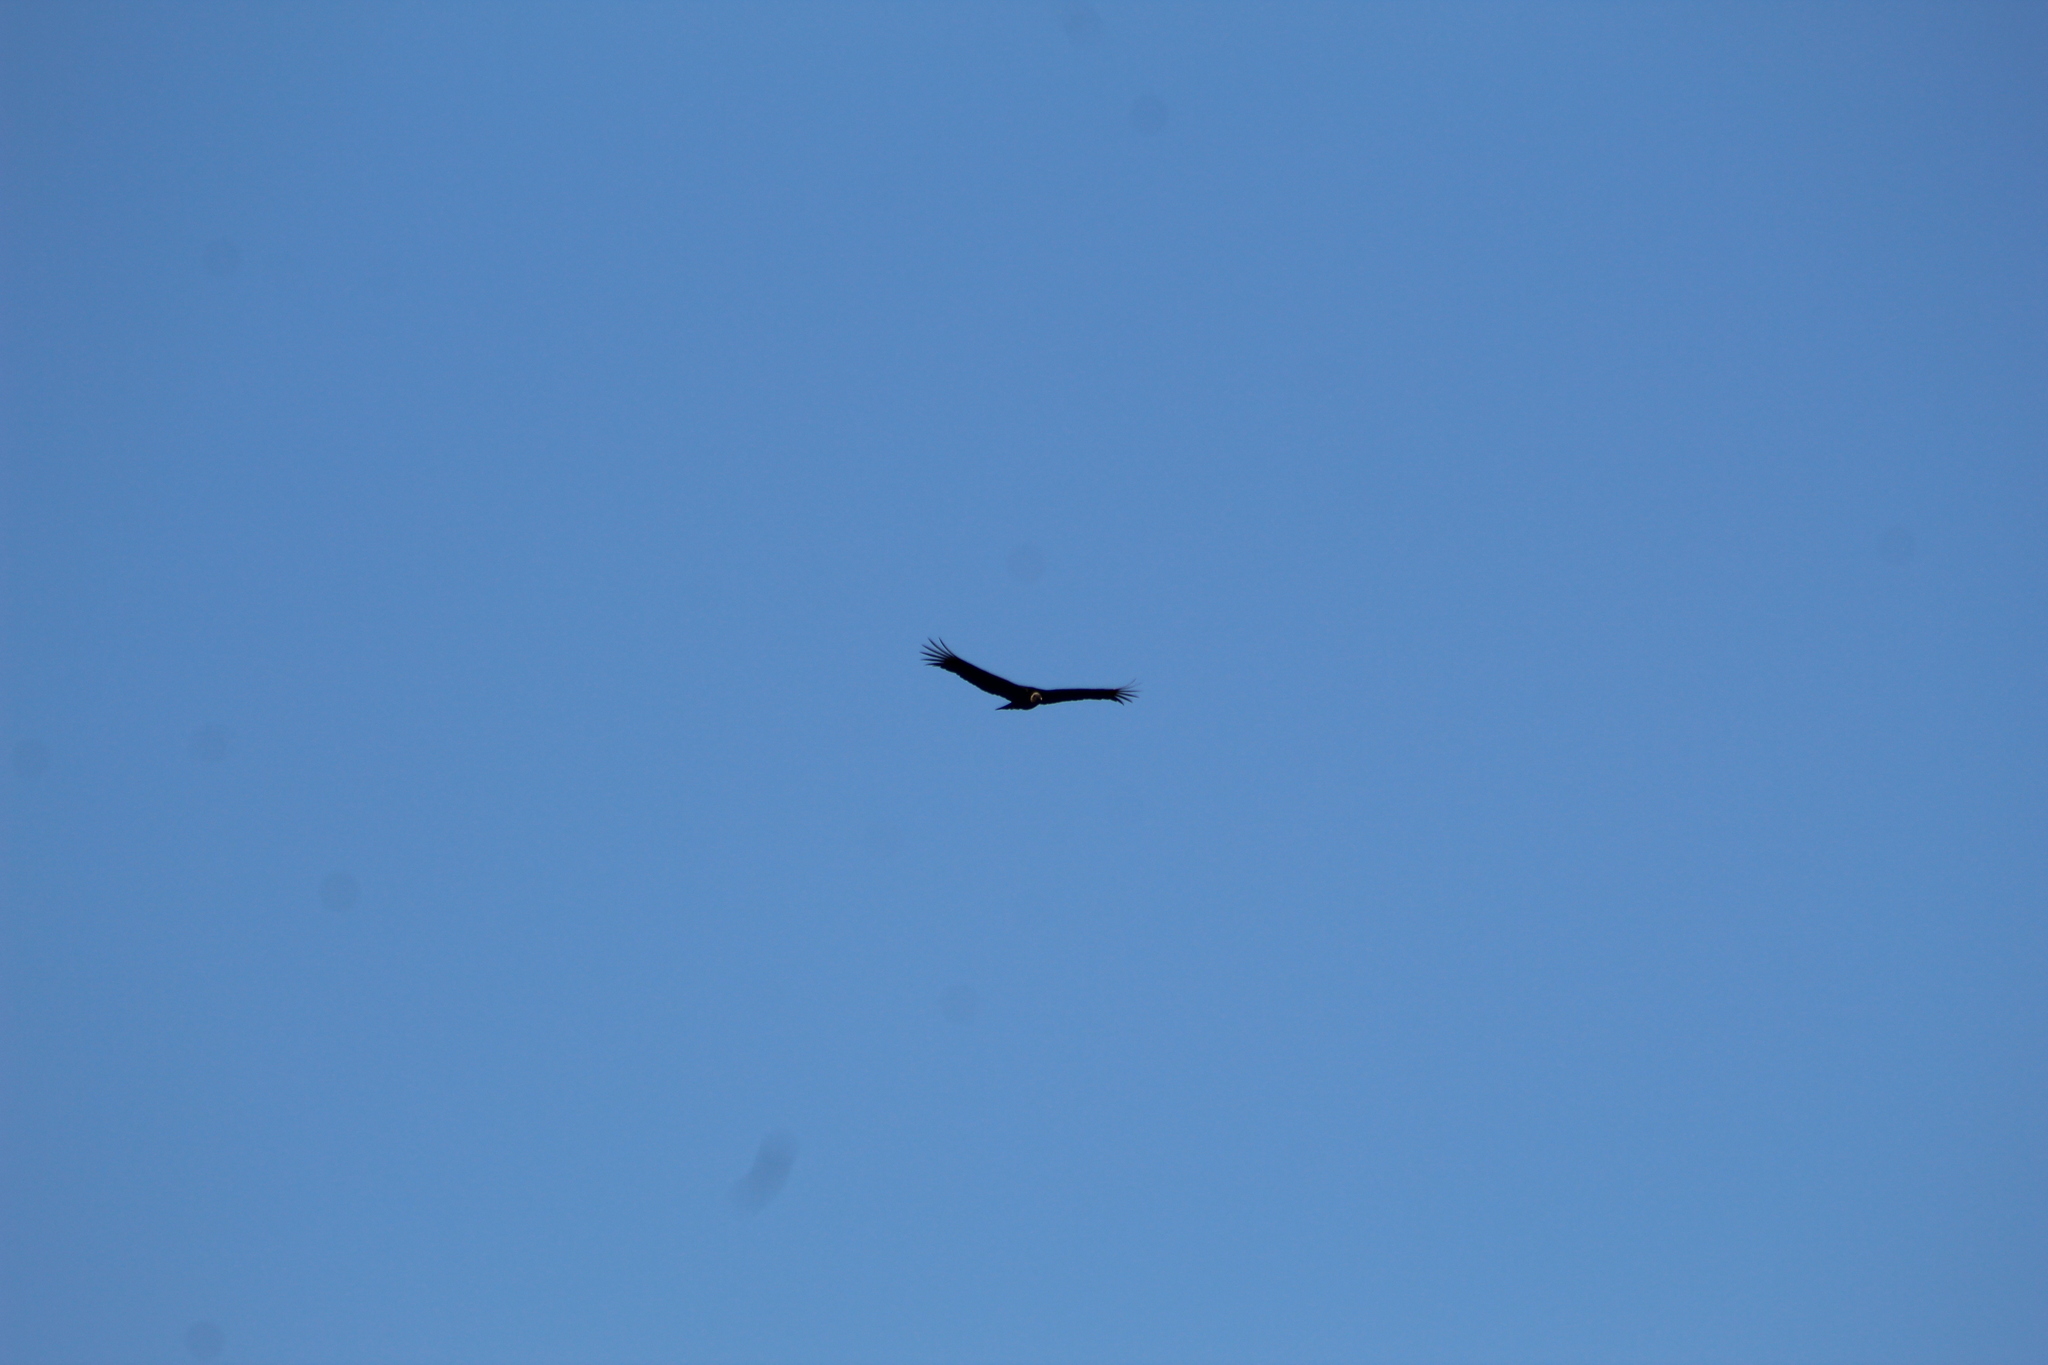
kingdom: Animalia
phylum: Chordata
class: Aves
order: Accipitriformes
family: Cathartidae
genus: Coragyps
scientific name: Coragyps atratus
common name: Black vulture
